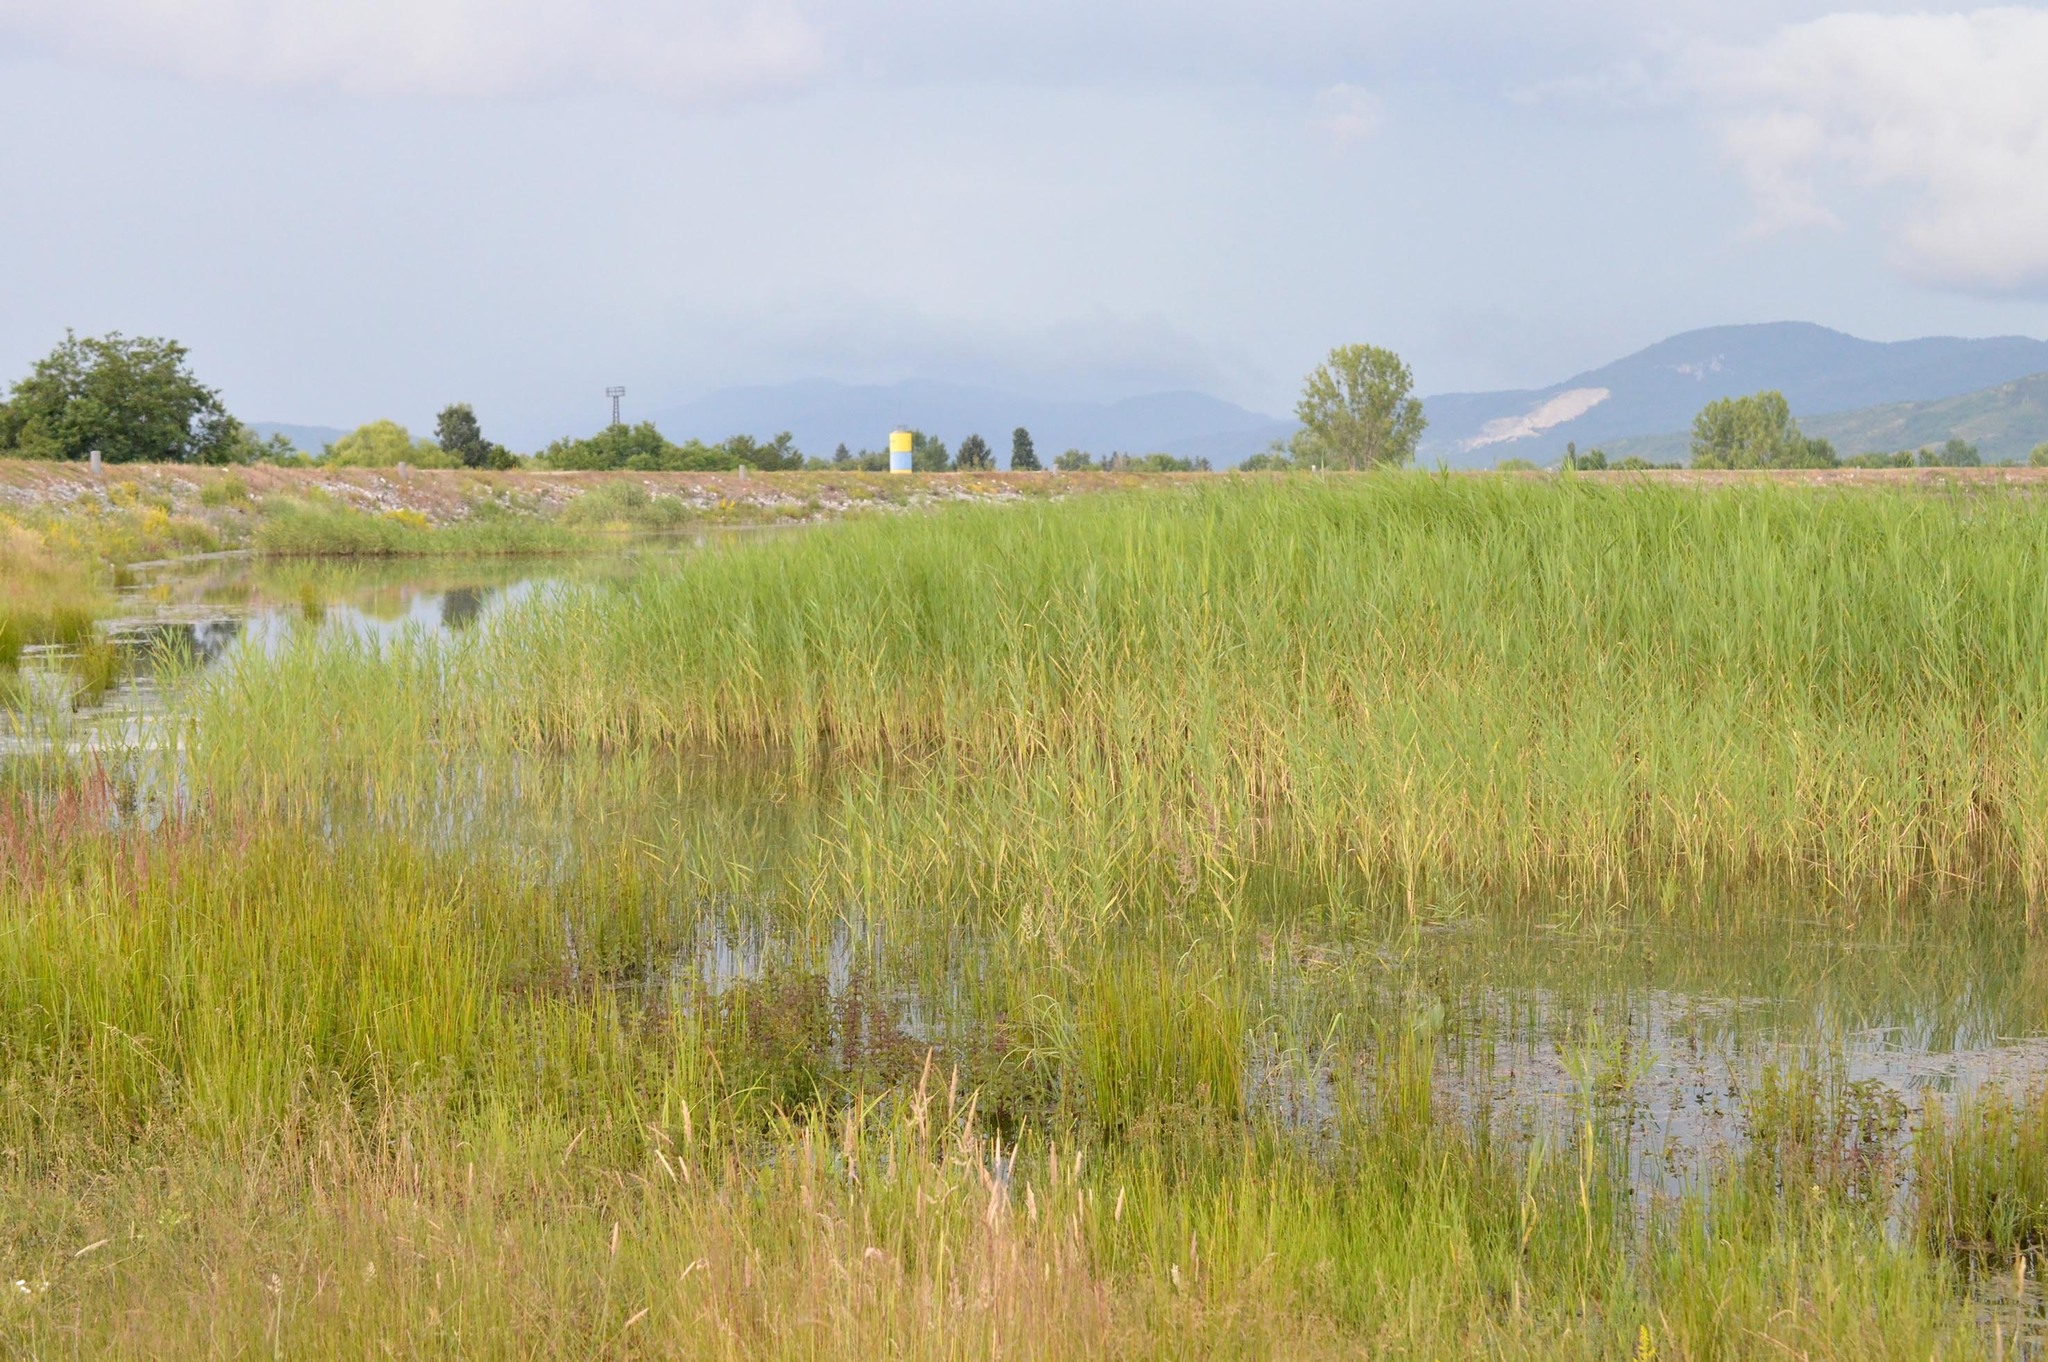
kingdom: Animalia
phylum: Chordata
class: Aves
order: Passeriformes
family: Acrocephalidae
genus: Acrocephalus
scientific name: Acrocephalus arundinaceus
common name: Great reed warbler
